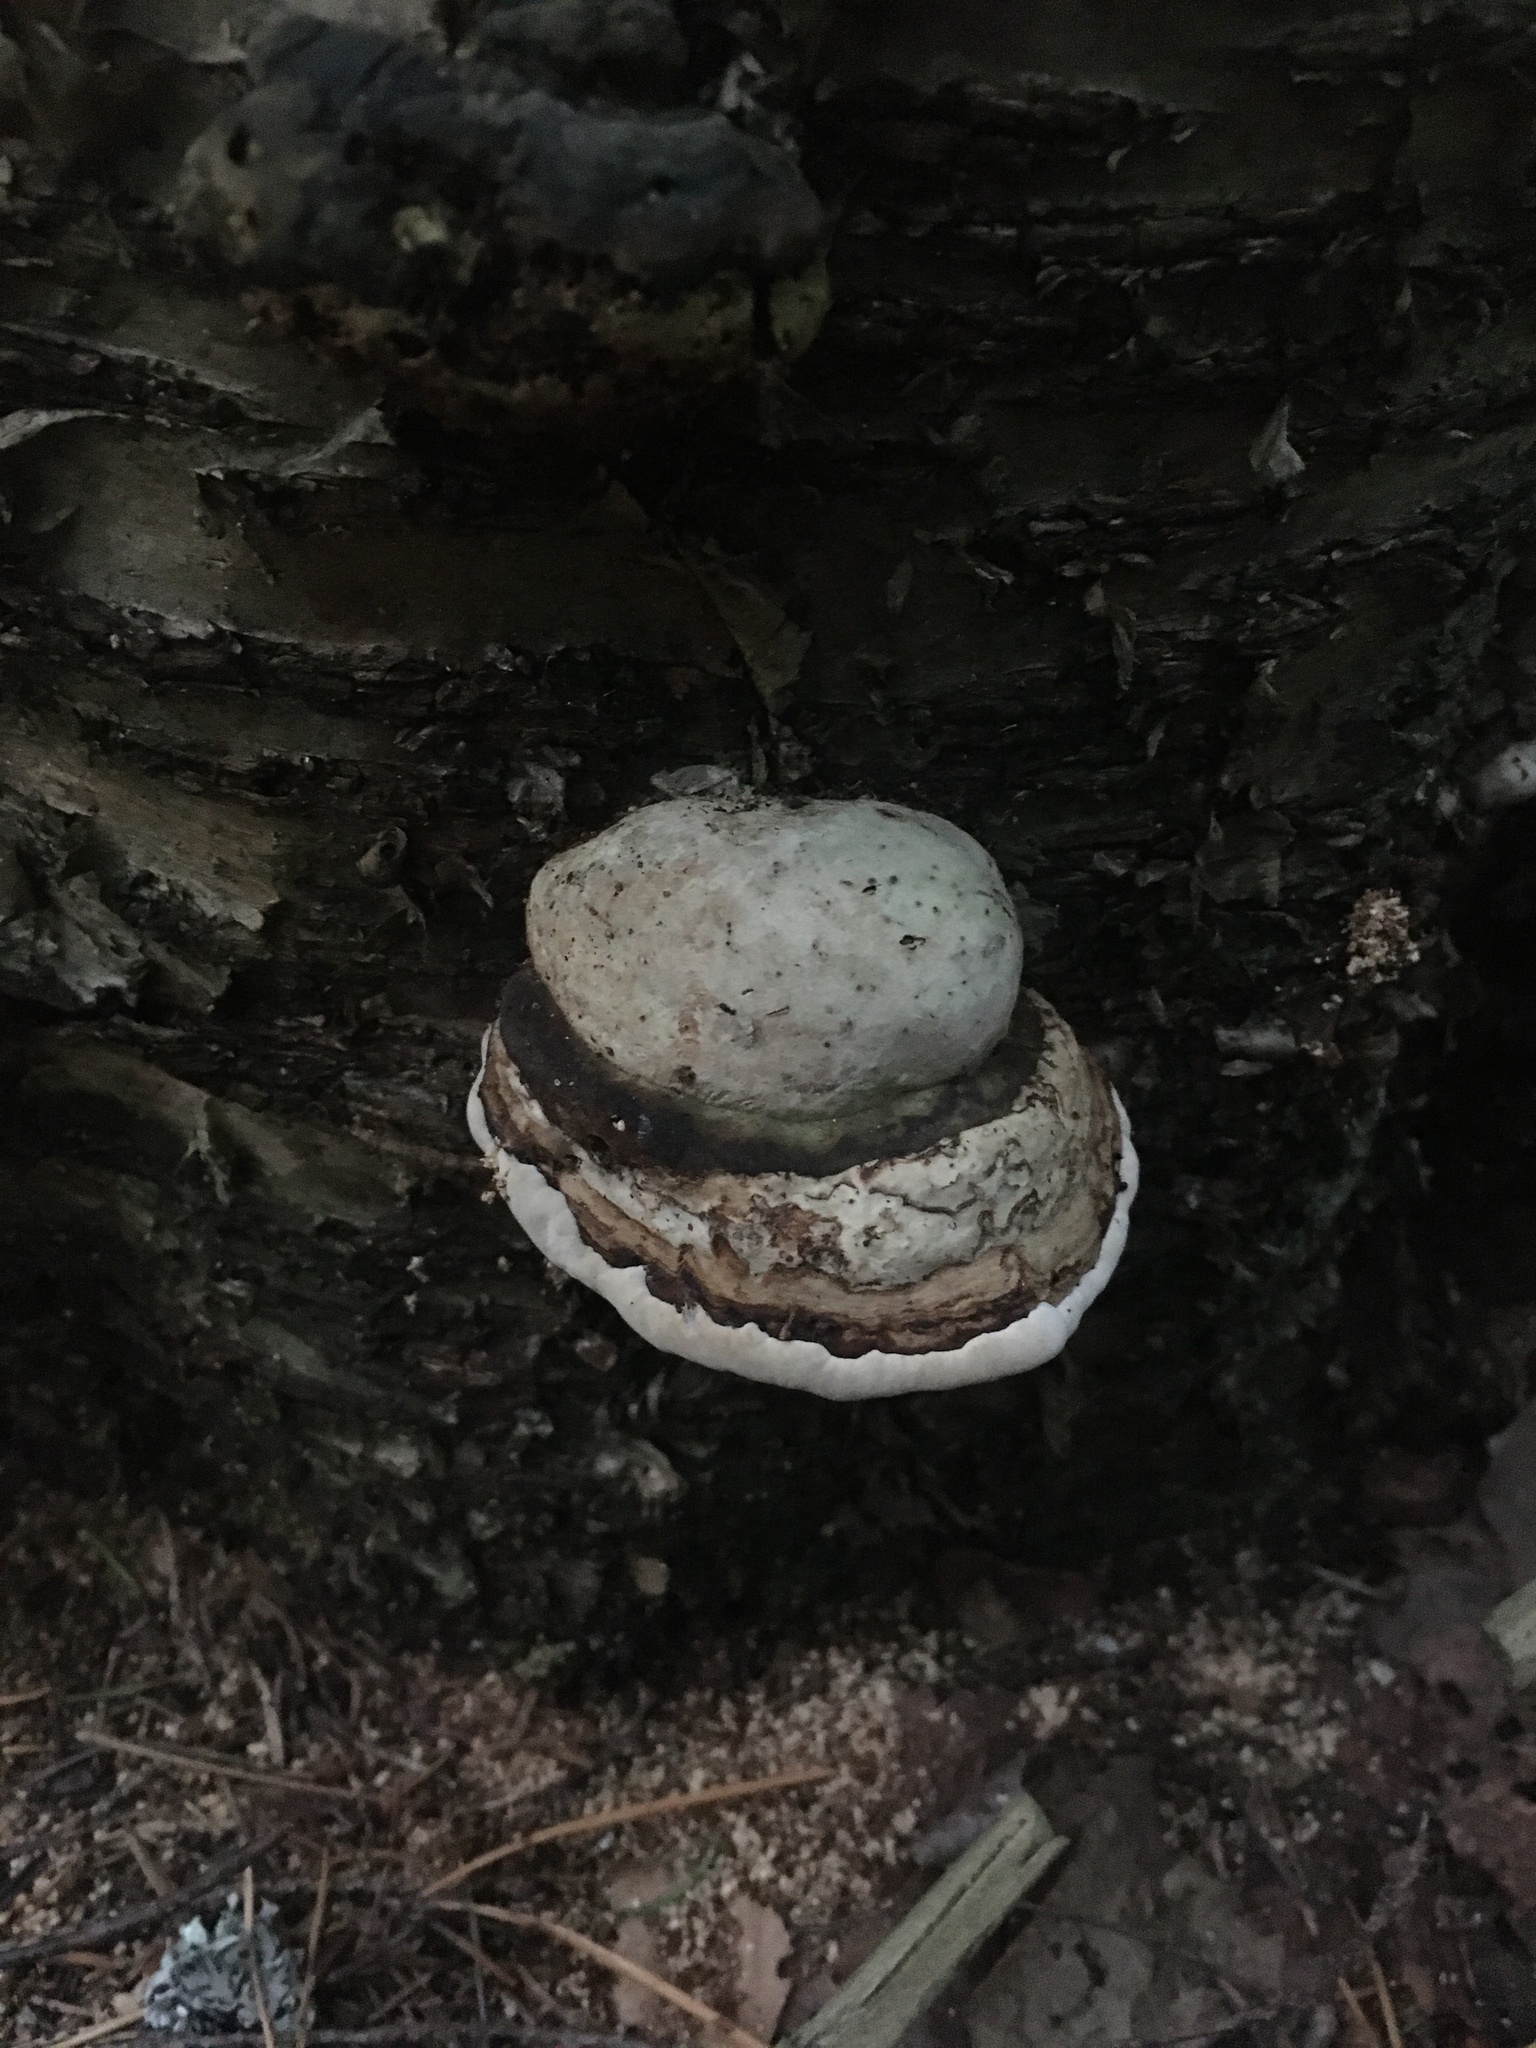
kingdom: Fungi
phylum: Basidiomycota
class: Agaricomycetes
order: Polyporales
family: Polyporaceae
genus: Fomes
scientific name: Fomes fomentarius
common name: Hoof fungus
